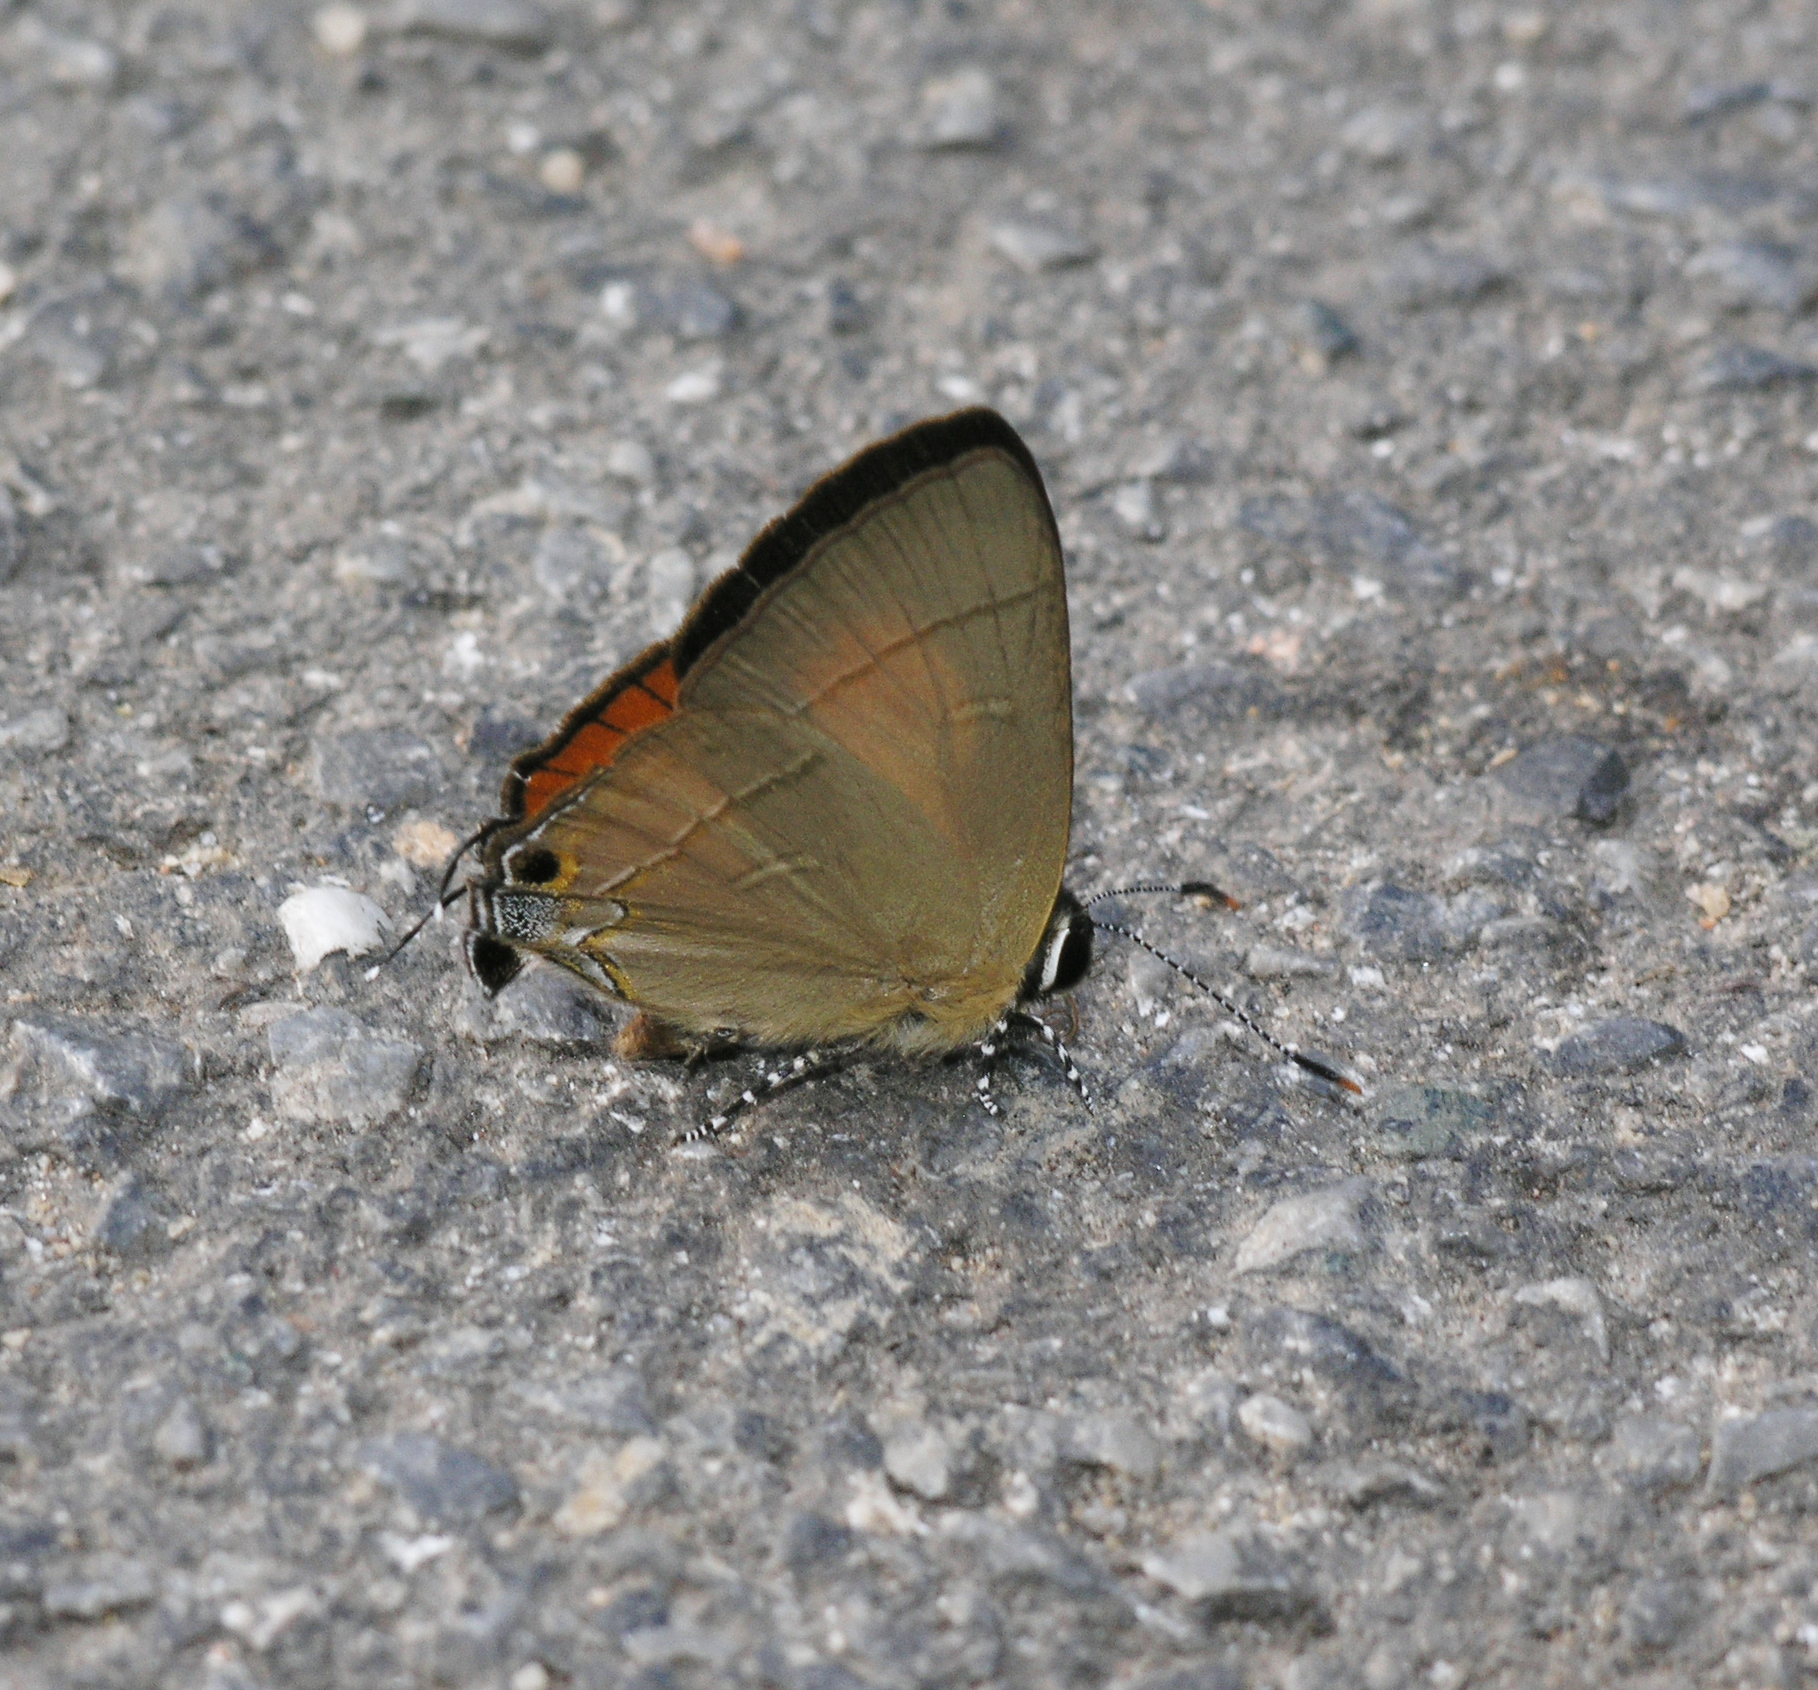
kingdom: Animalia
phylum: Arthropoda
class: Insecta
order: Lepidoptera
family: Lycaenidae
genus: Rapala
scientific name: Rapala dieneces
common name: Scarlet flash
